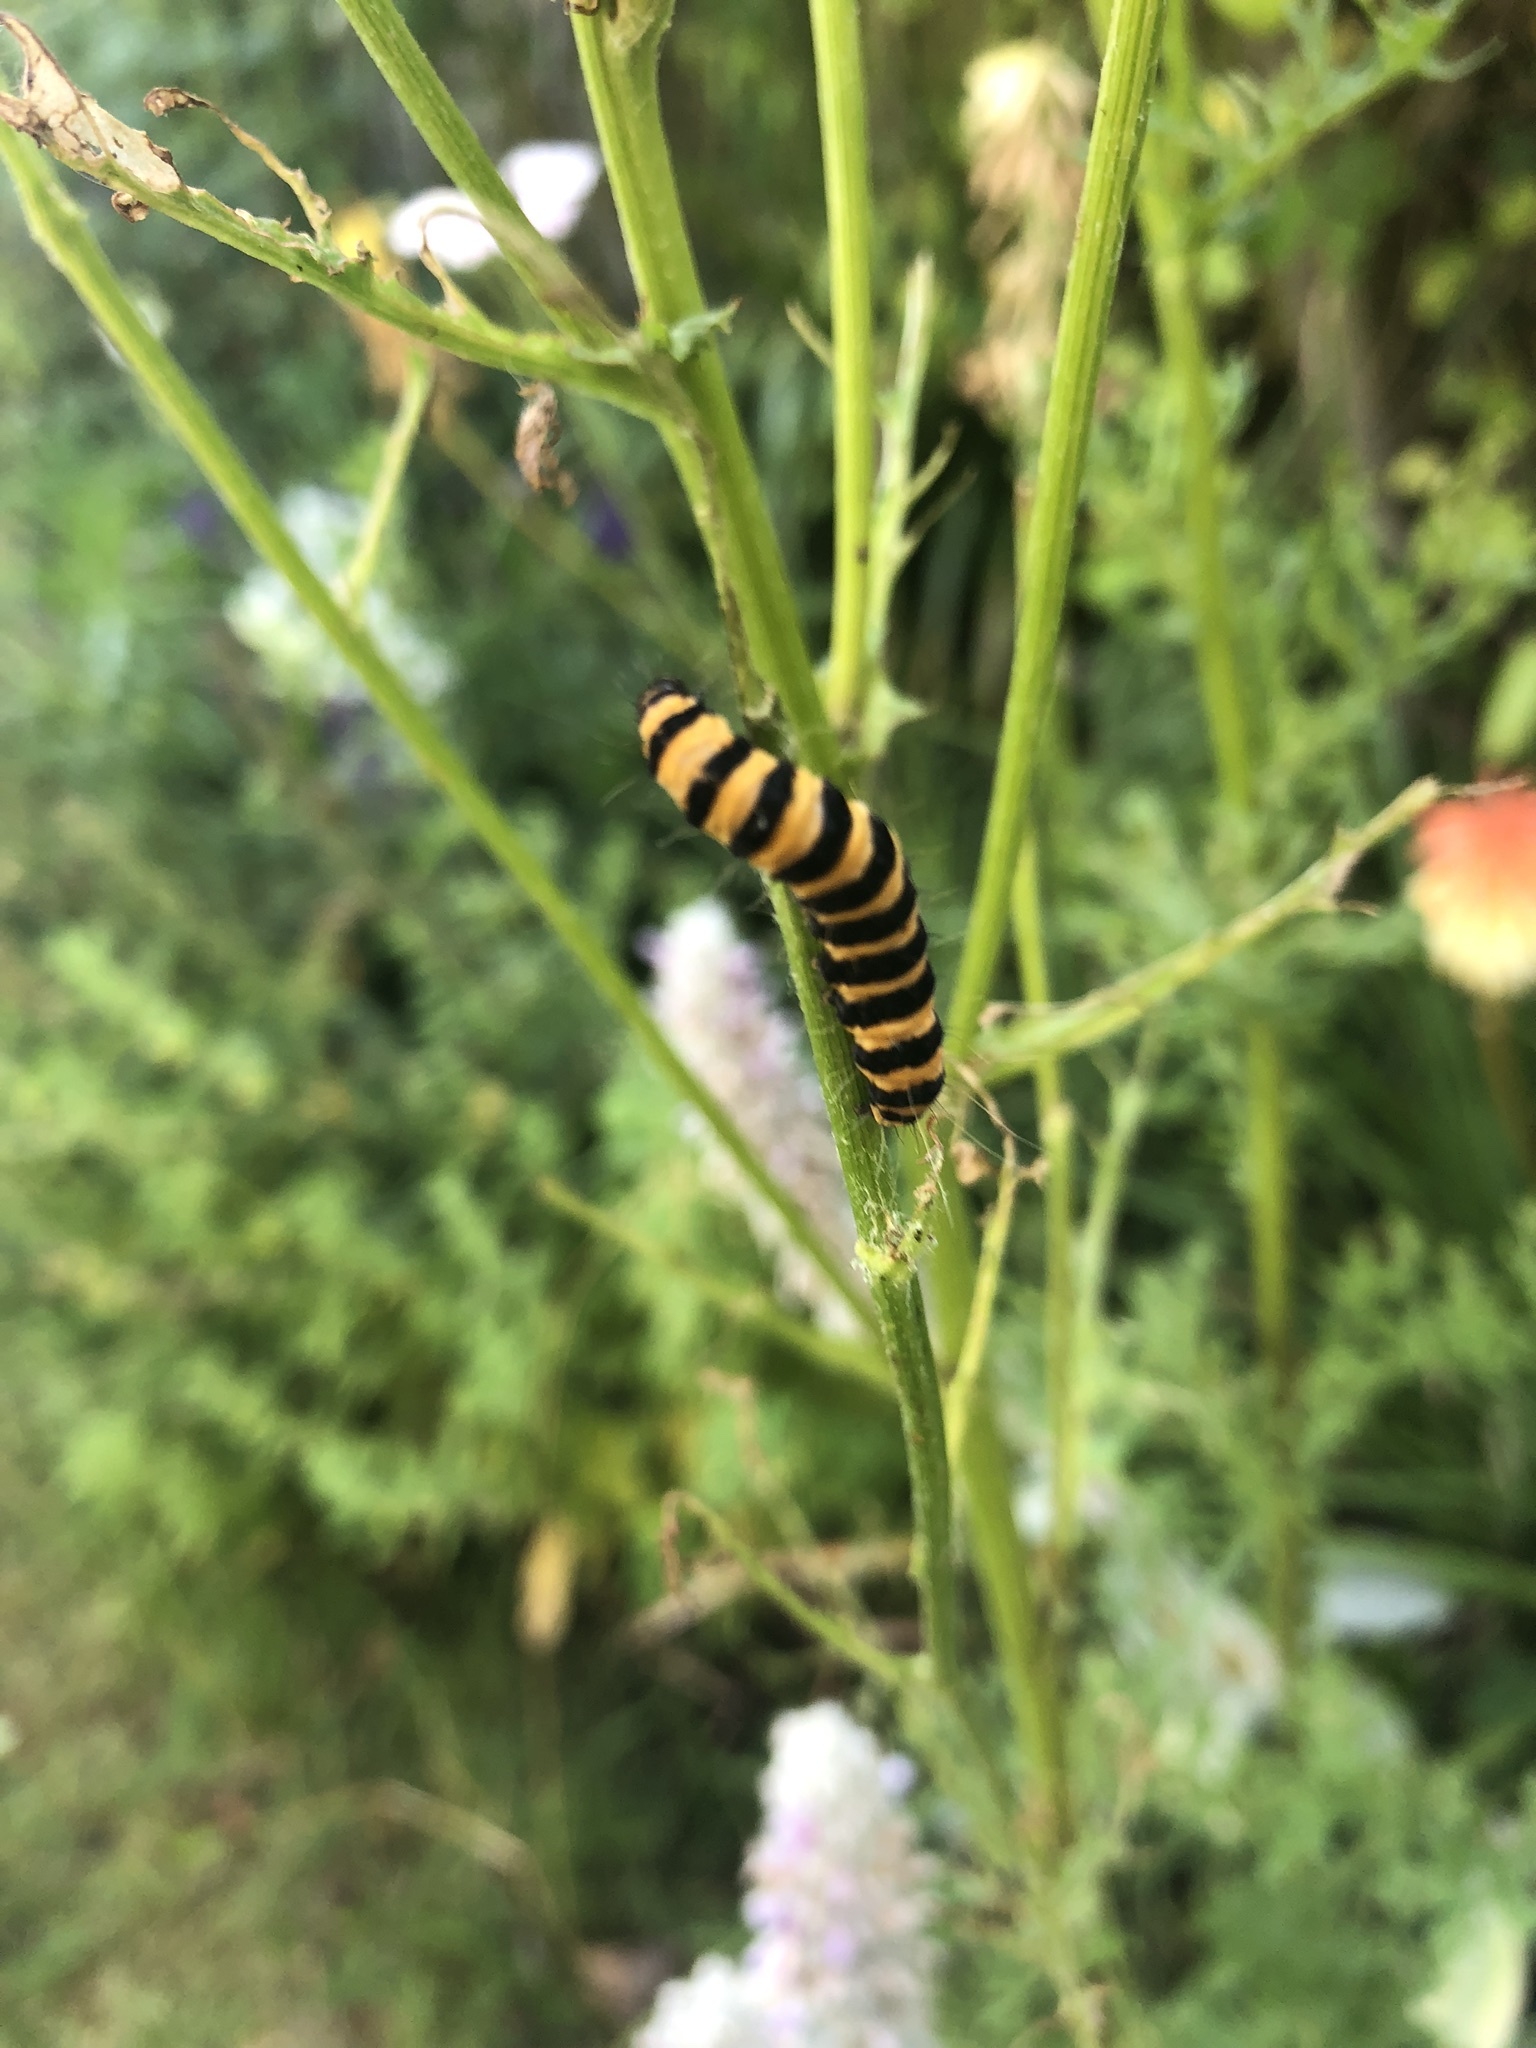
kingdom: Animalia
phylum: Arthropoda
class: Insecta
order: Lepidoptera
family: Erebidae
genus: Tyria
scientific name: Tyria jacobaeae
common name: Cinnabar
